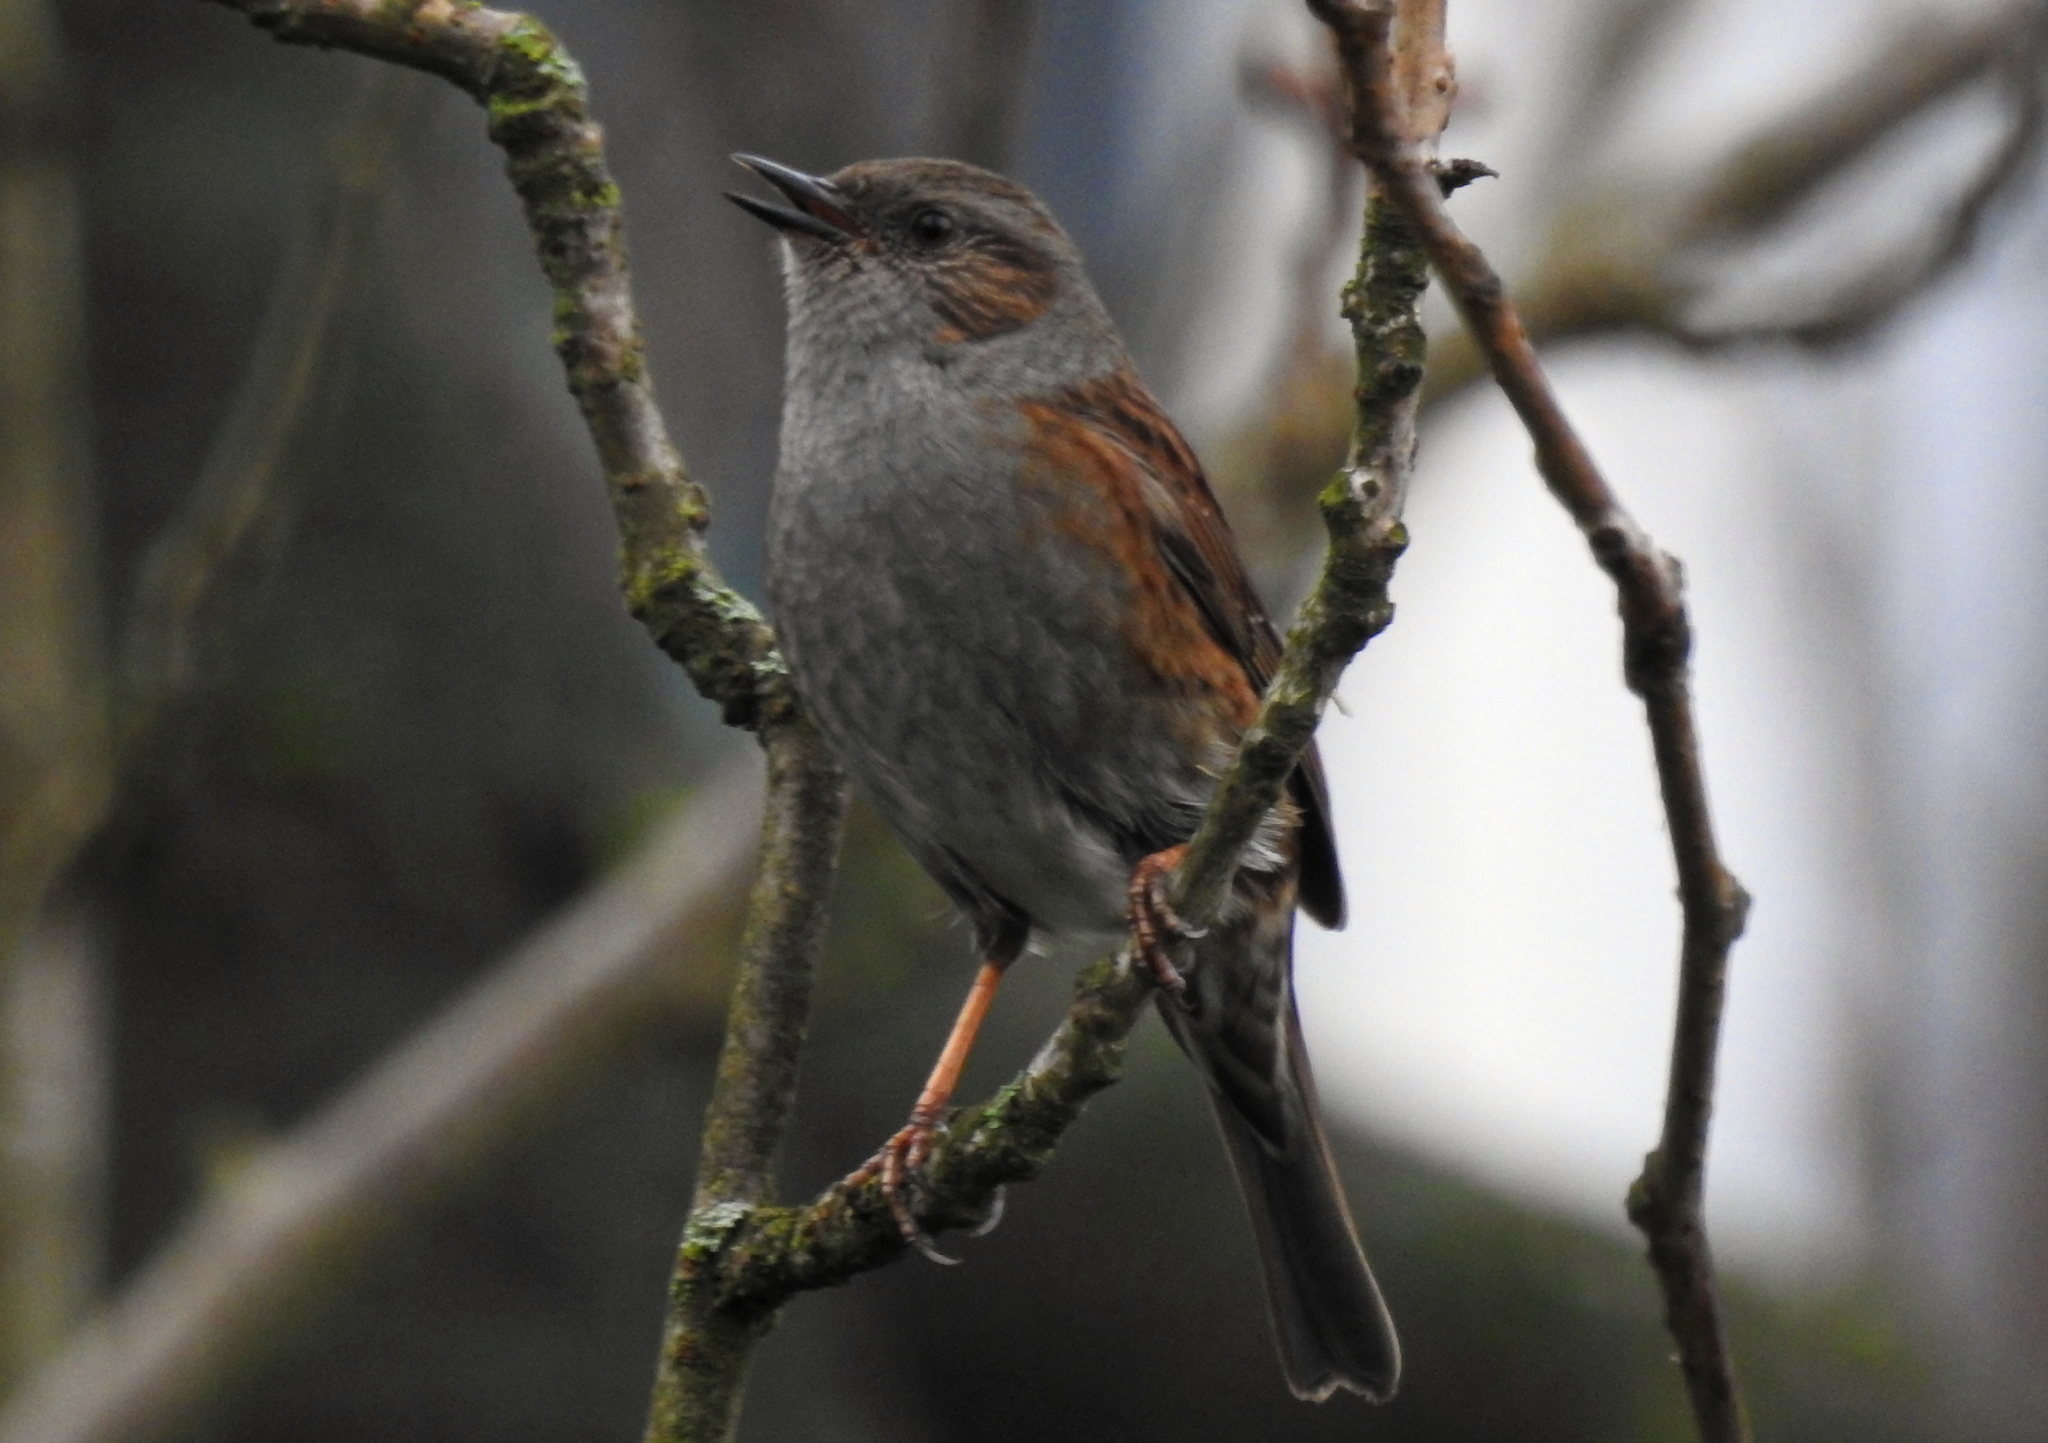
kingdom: Animalia
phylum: Chordata
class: Aves
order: Passeriformes
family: Prunellidae
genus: Prunella
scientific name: Prunella modularis
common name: Dunnock
